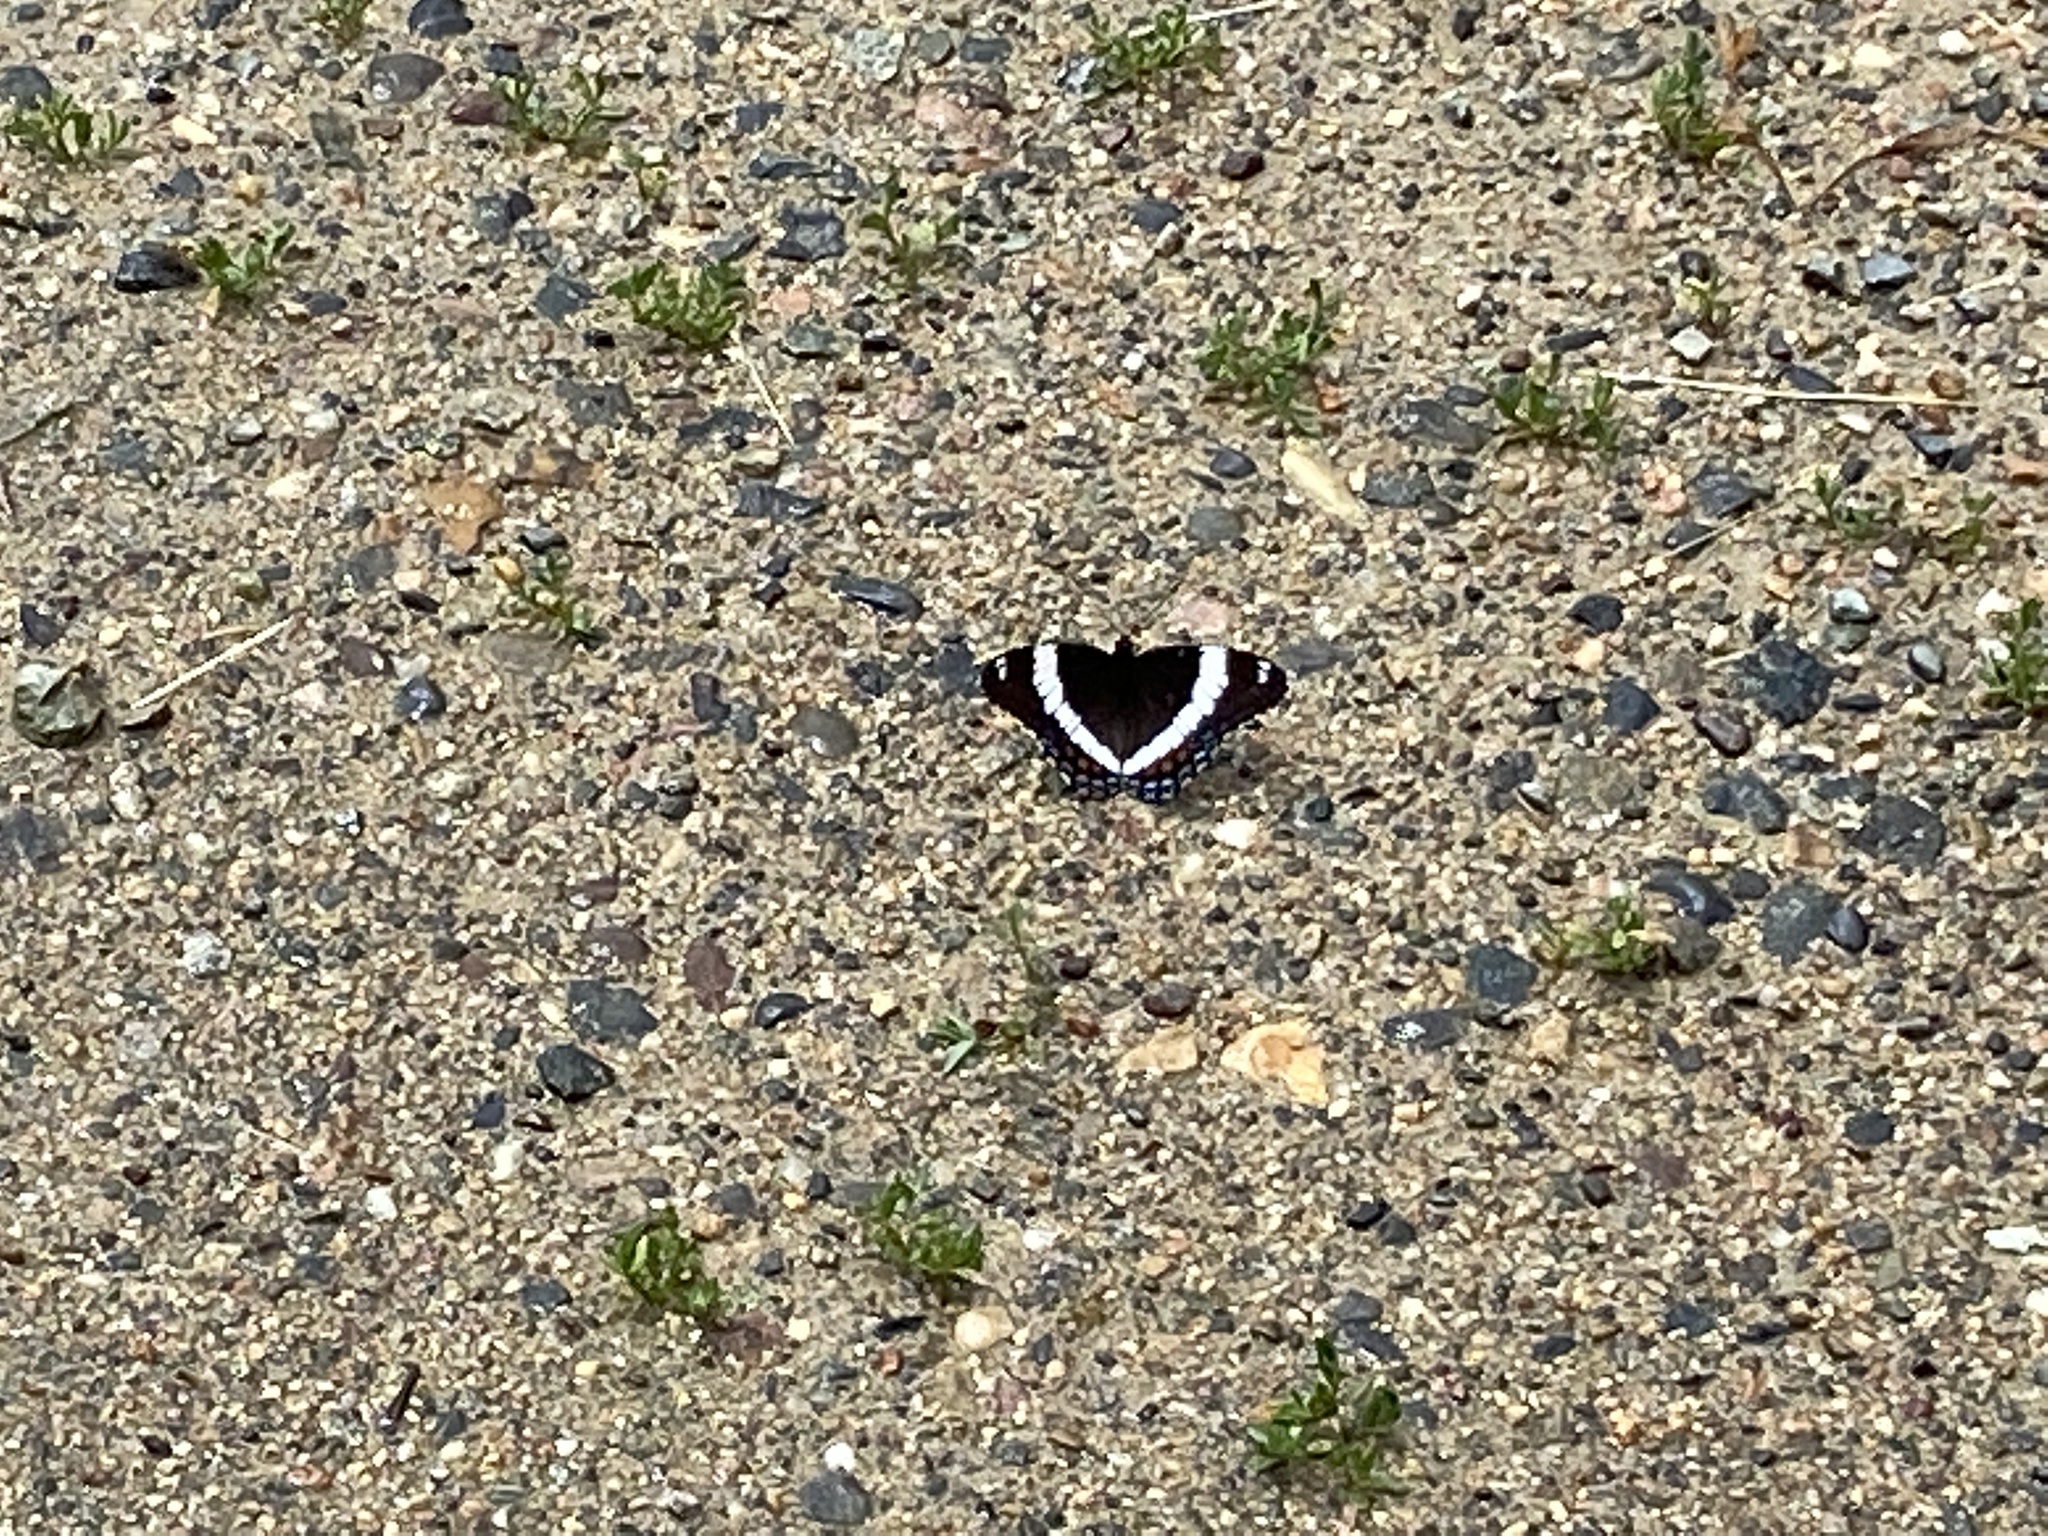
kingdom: Animalia
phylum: Arthropoda
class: Insecta
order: Lepidoptera
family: Nymphalidae
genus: Limenitis
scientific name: Limenitis arthemis
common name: Red-spotted admiral
